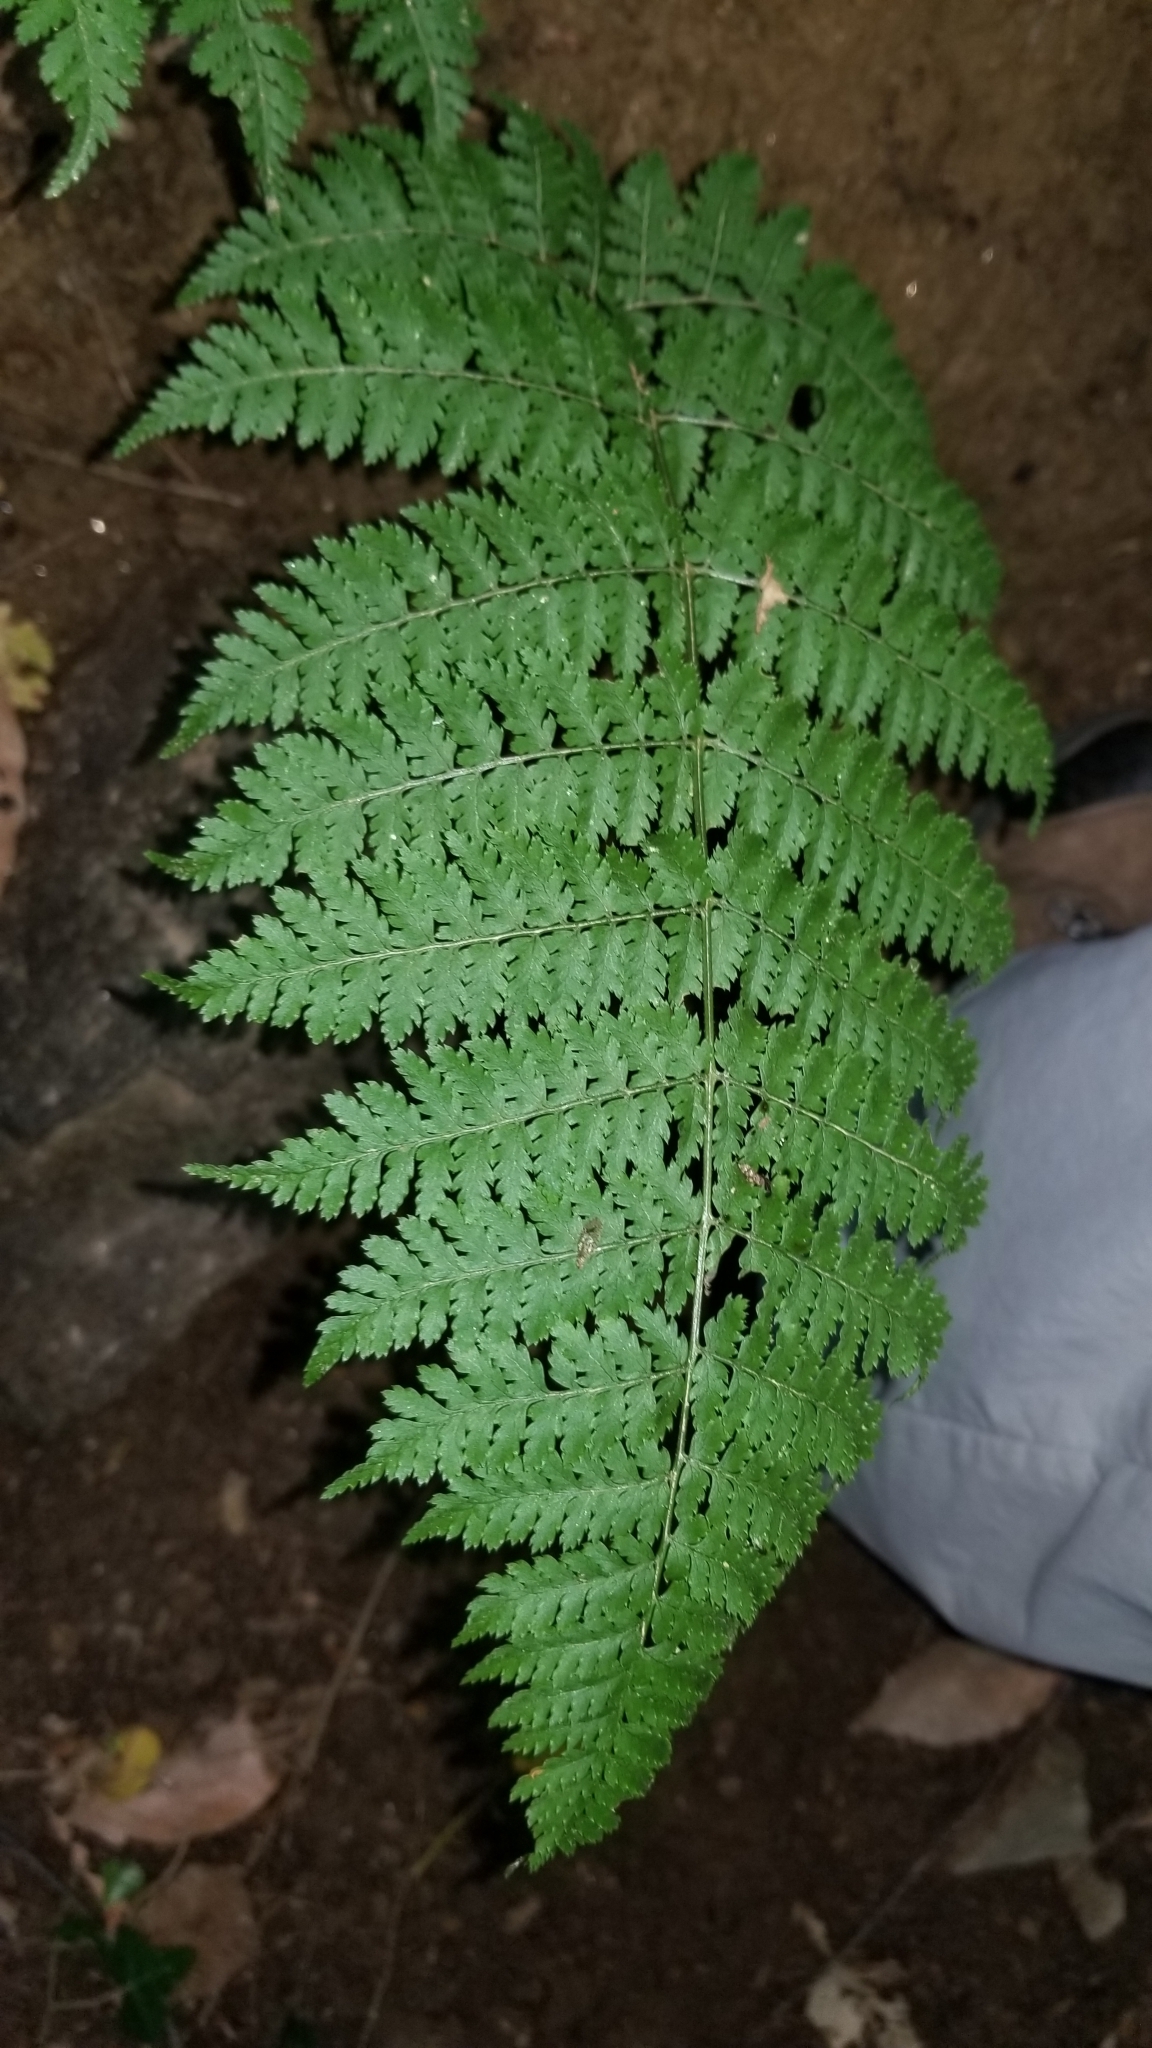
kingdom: Plantae
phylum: Tracheophyta
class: Polypodiopsida
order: Polypodiales
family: Dryopteridaceae
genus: Dryopteris
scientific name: Dryopteris intermedia
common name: Evergreen wood fern
